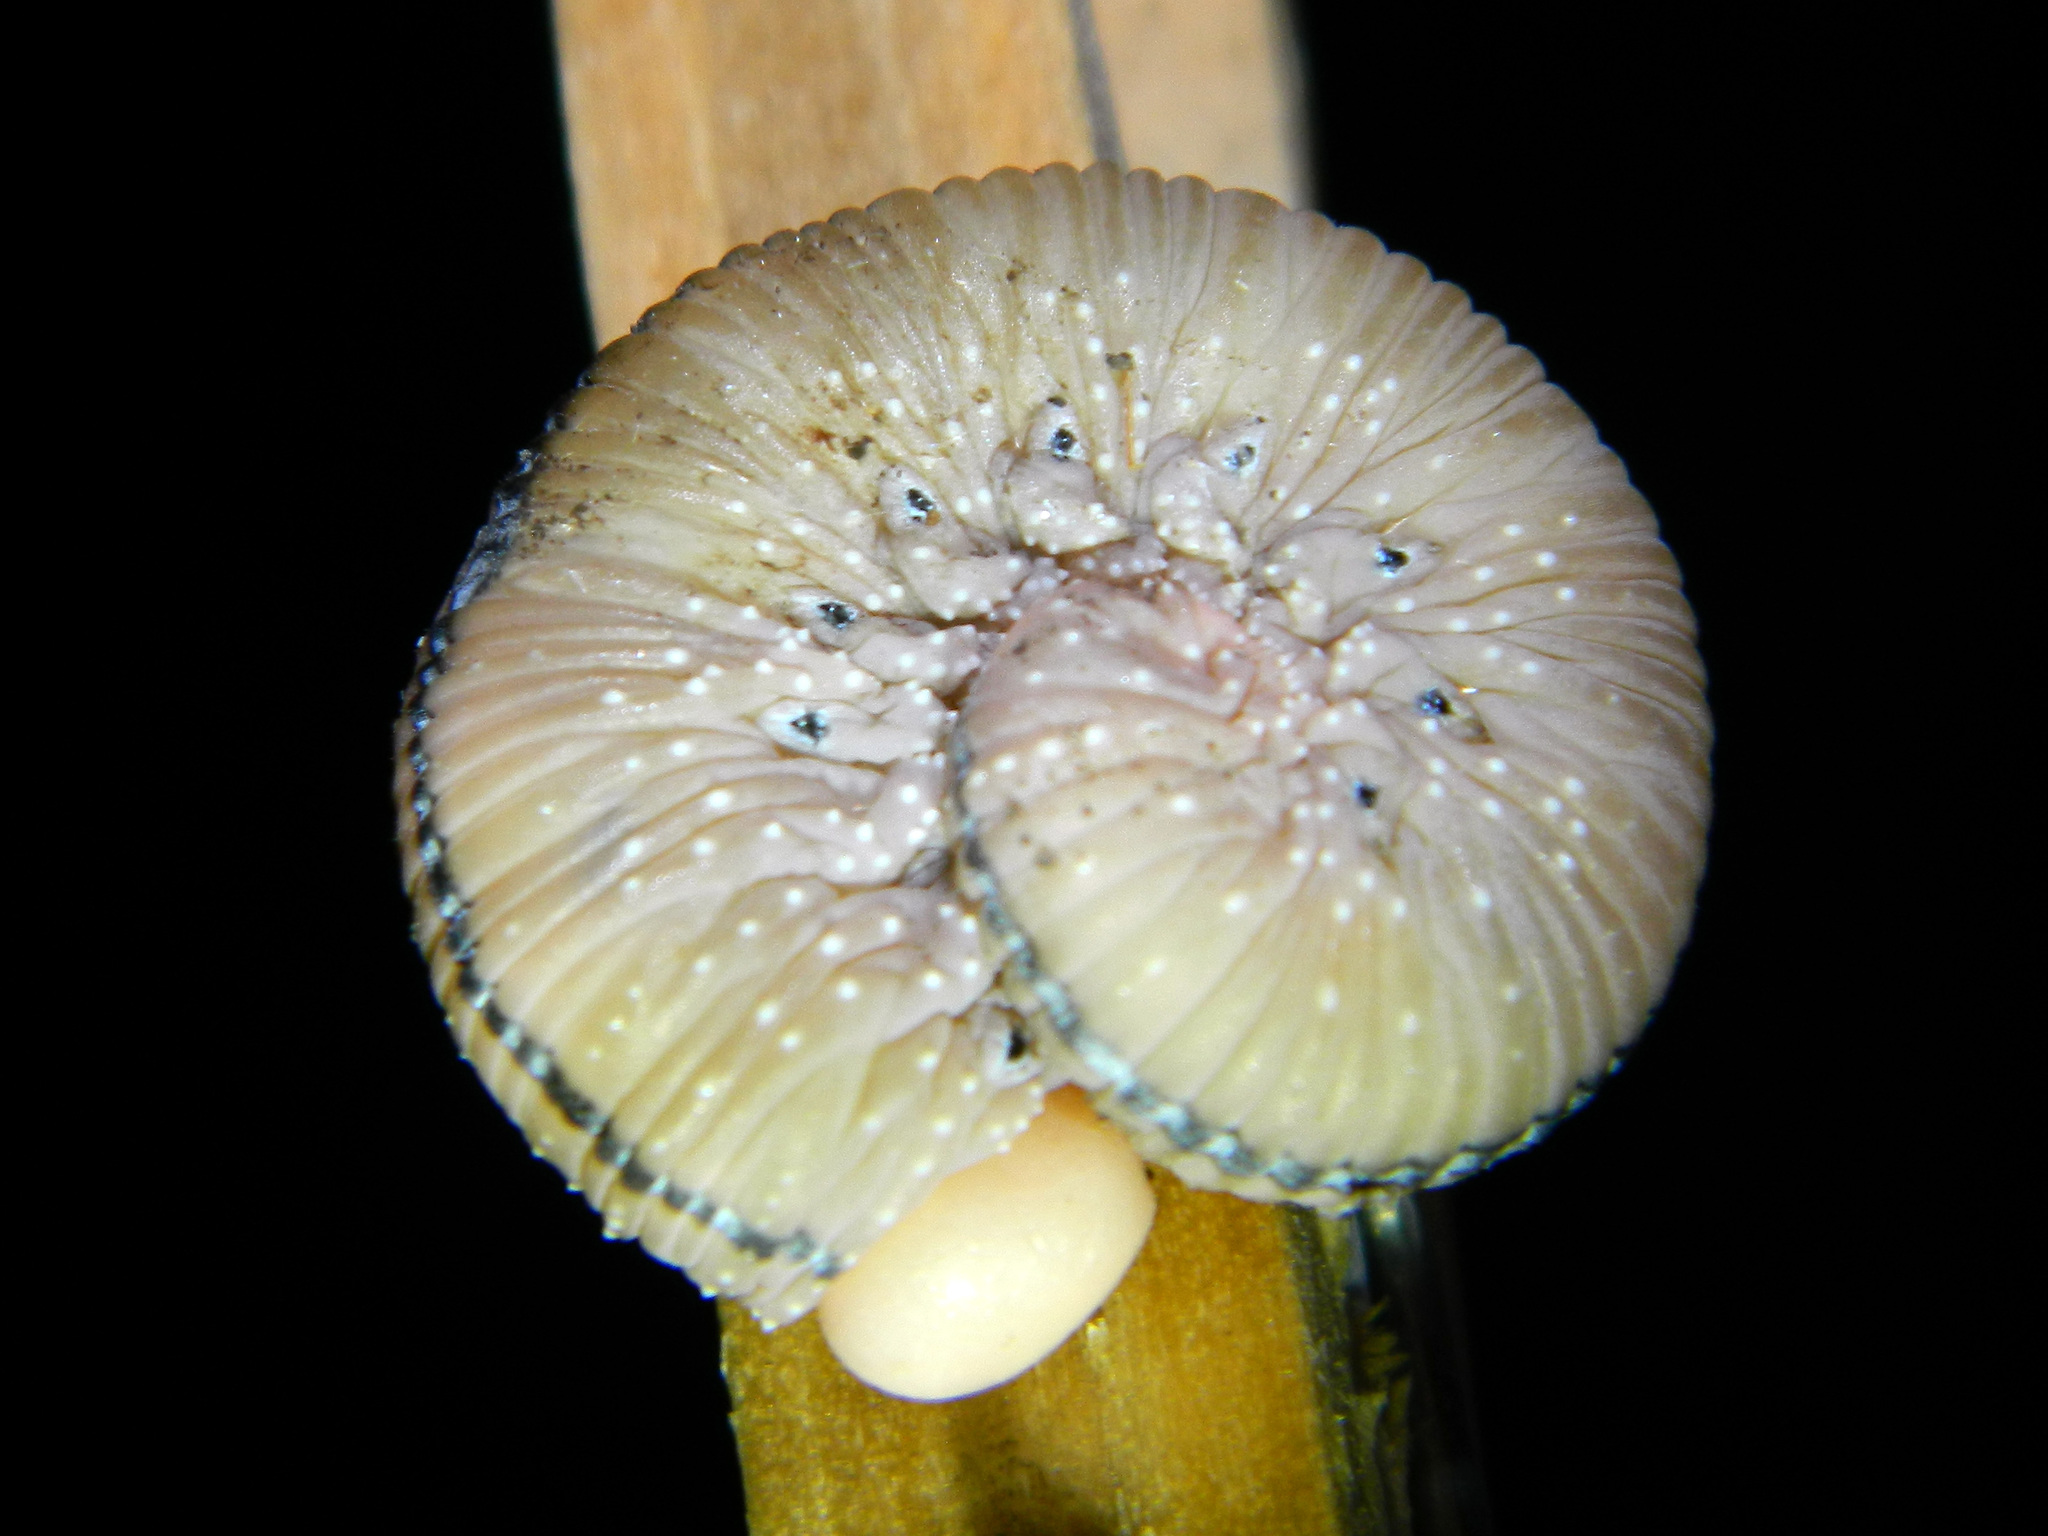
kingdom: Animalia
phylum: Arthropoda
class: Insecta
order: Hymenoptera
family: Cimbicidae
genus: Cimbex
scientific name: Cimbex americana
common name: Elm sawfly
